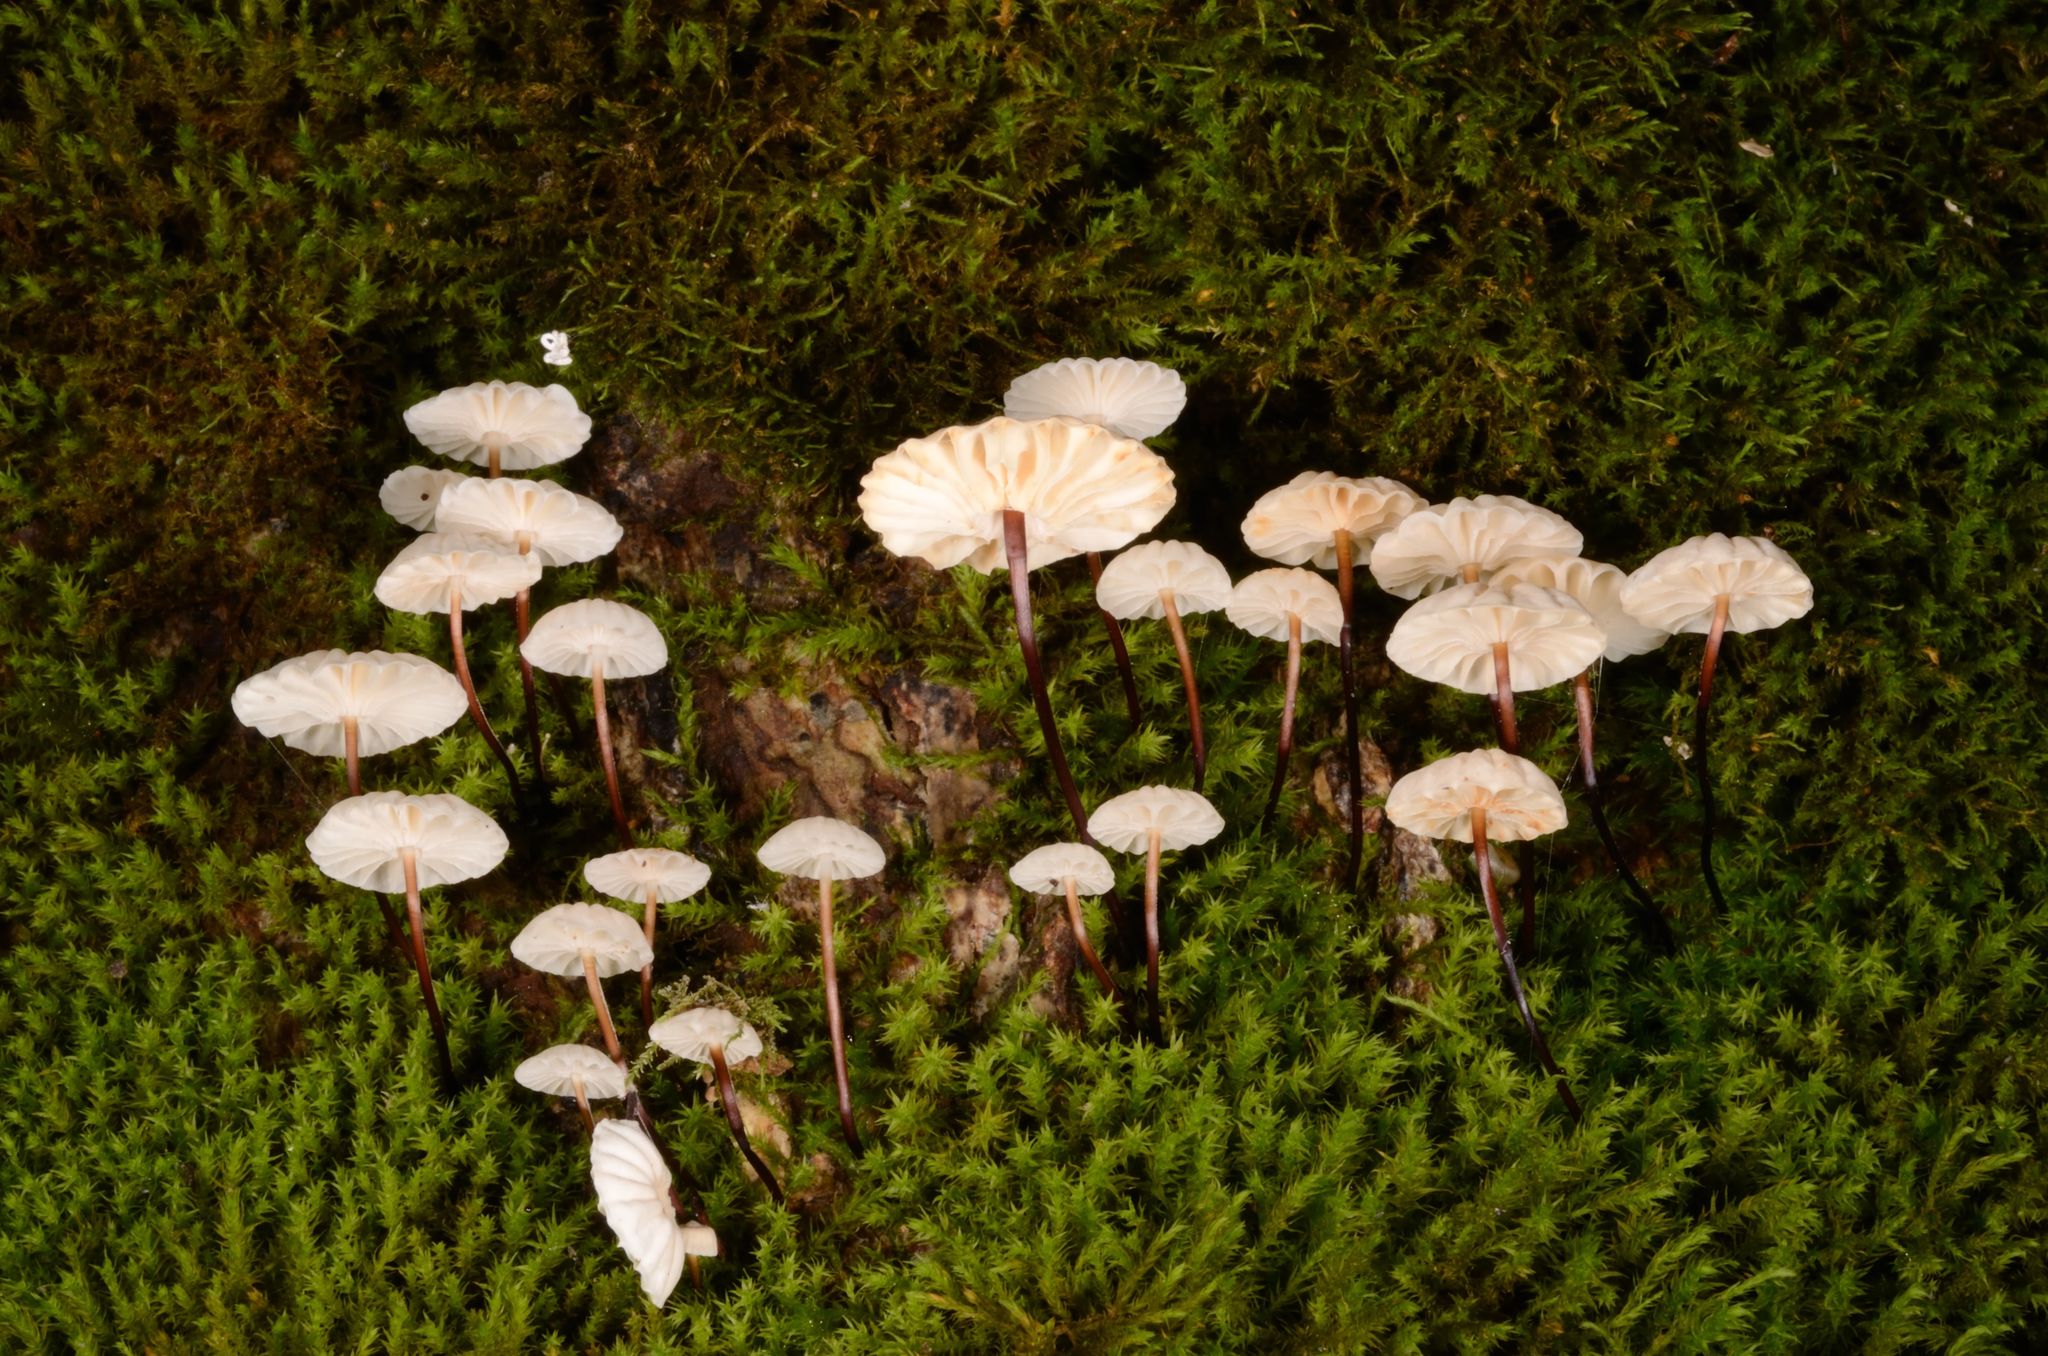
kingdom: Fungi
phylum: Basidiomycota
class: Agaricomycetes
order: Agaricales
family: Marasmiaceae
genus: Marasmius
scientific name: Marasmius rotula
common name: Collared parachute
